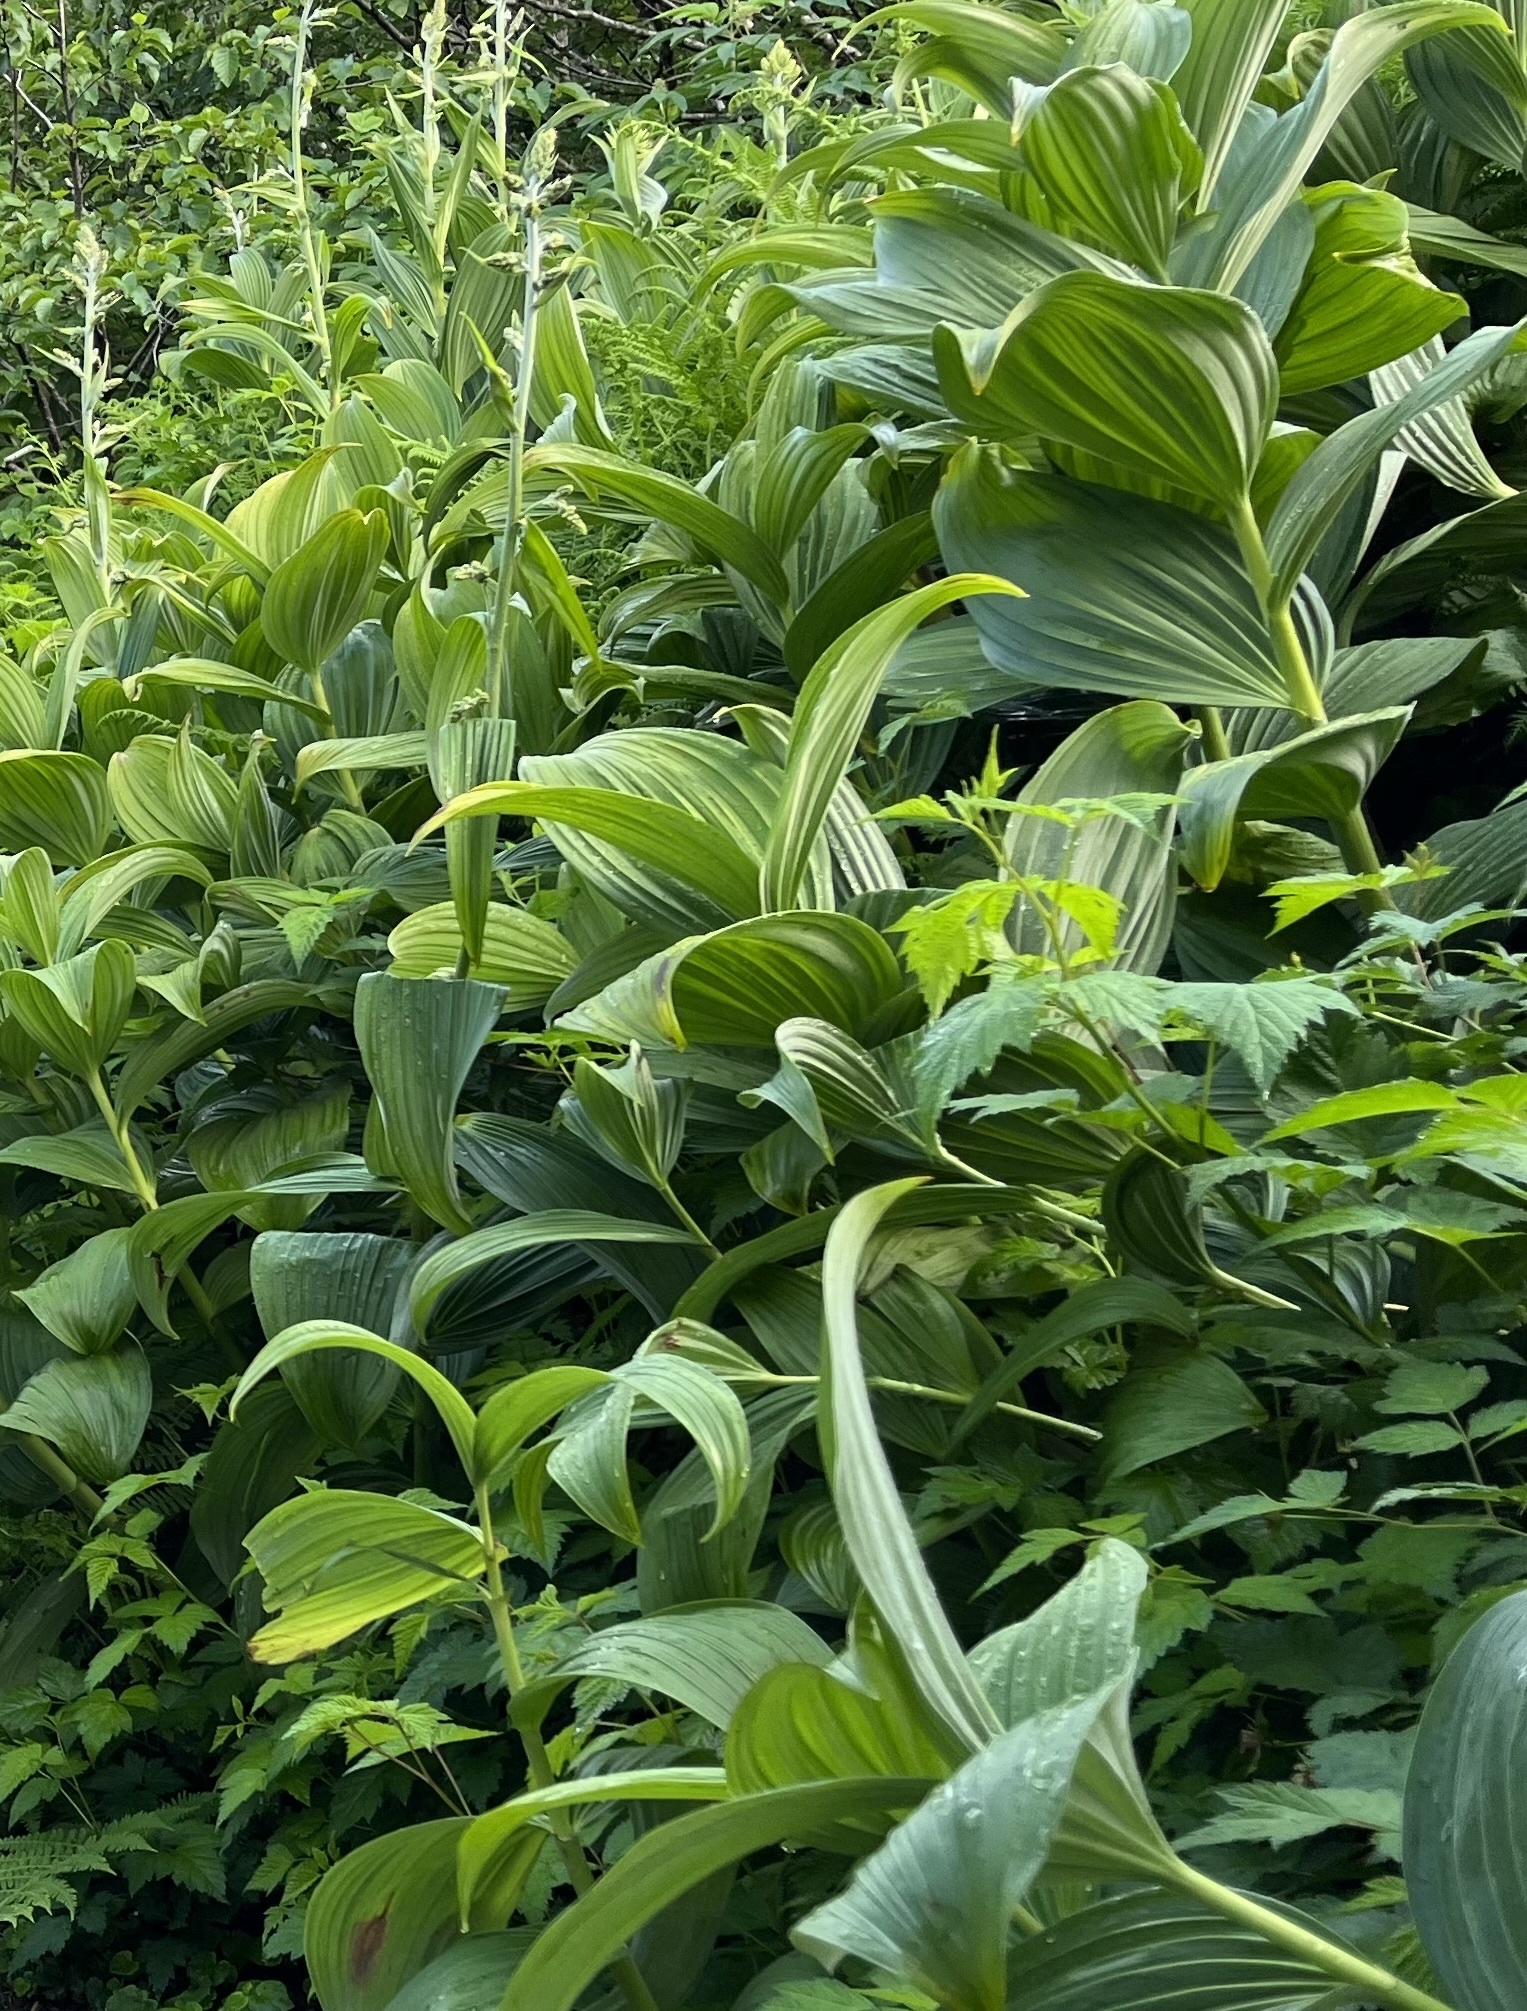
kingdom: Plantae
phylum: Tracheophyta
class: Liliopsida
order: Liliales
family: Melanthiaceae
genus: Veratrum
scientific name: Veratrum viride
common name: American false hellebore
